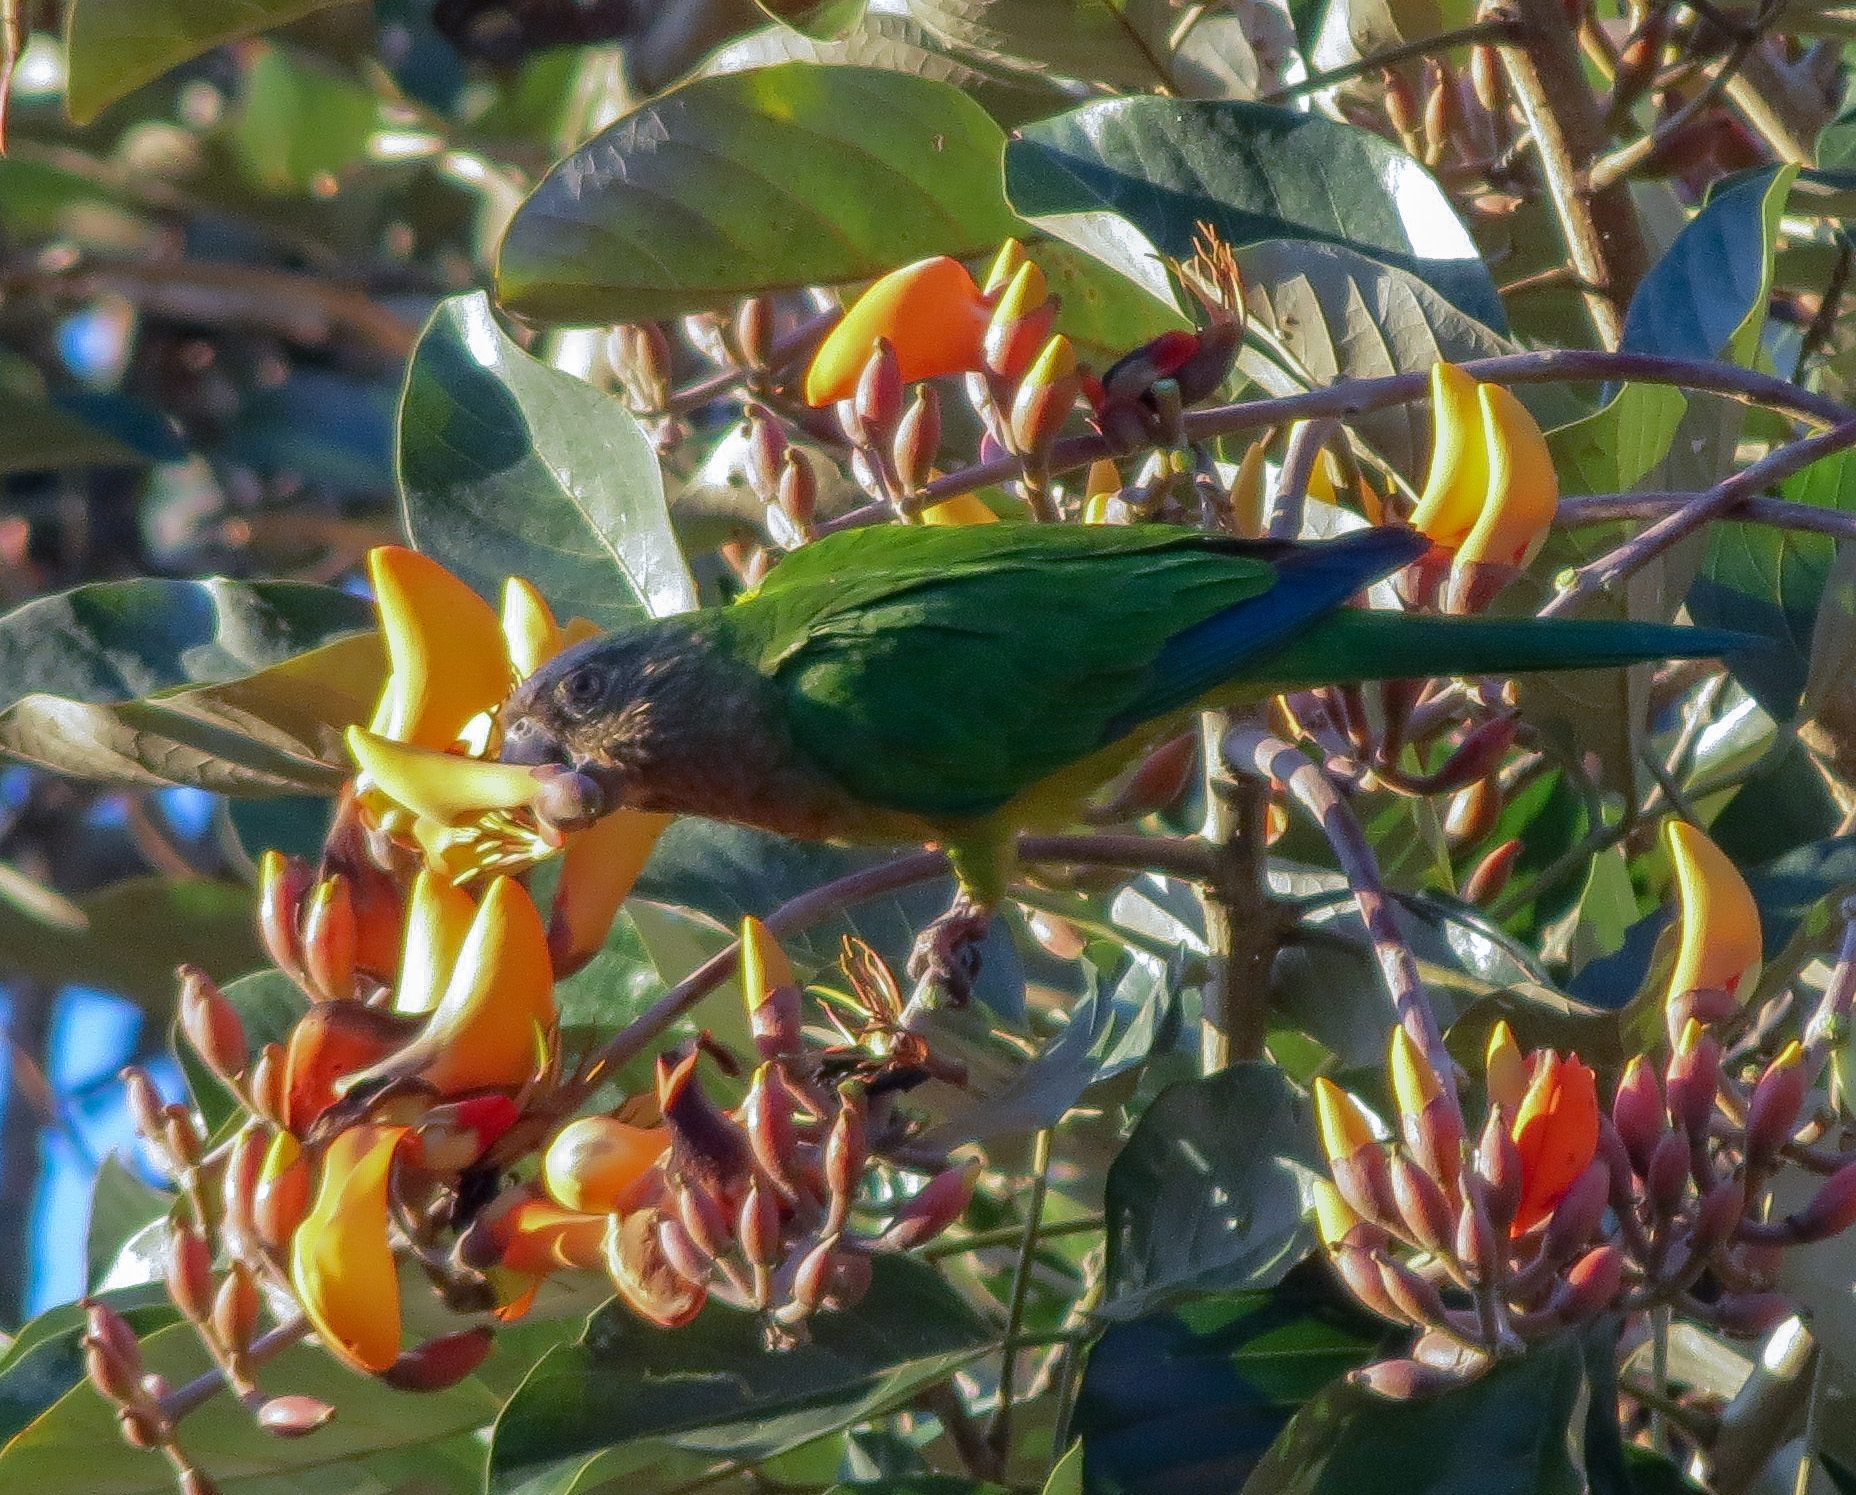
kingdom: Animalia
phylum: Chordata
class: Aves
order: Psittaciformes
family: Psittacidae
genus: Aratinga
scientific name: Aratinga pertinax
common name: Brown-throated parakeet
